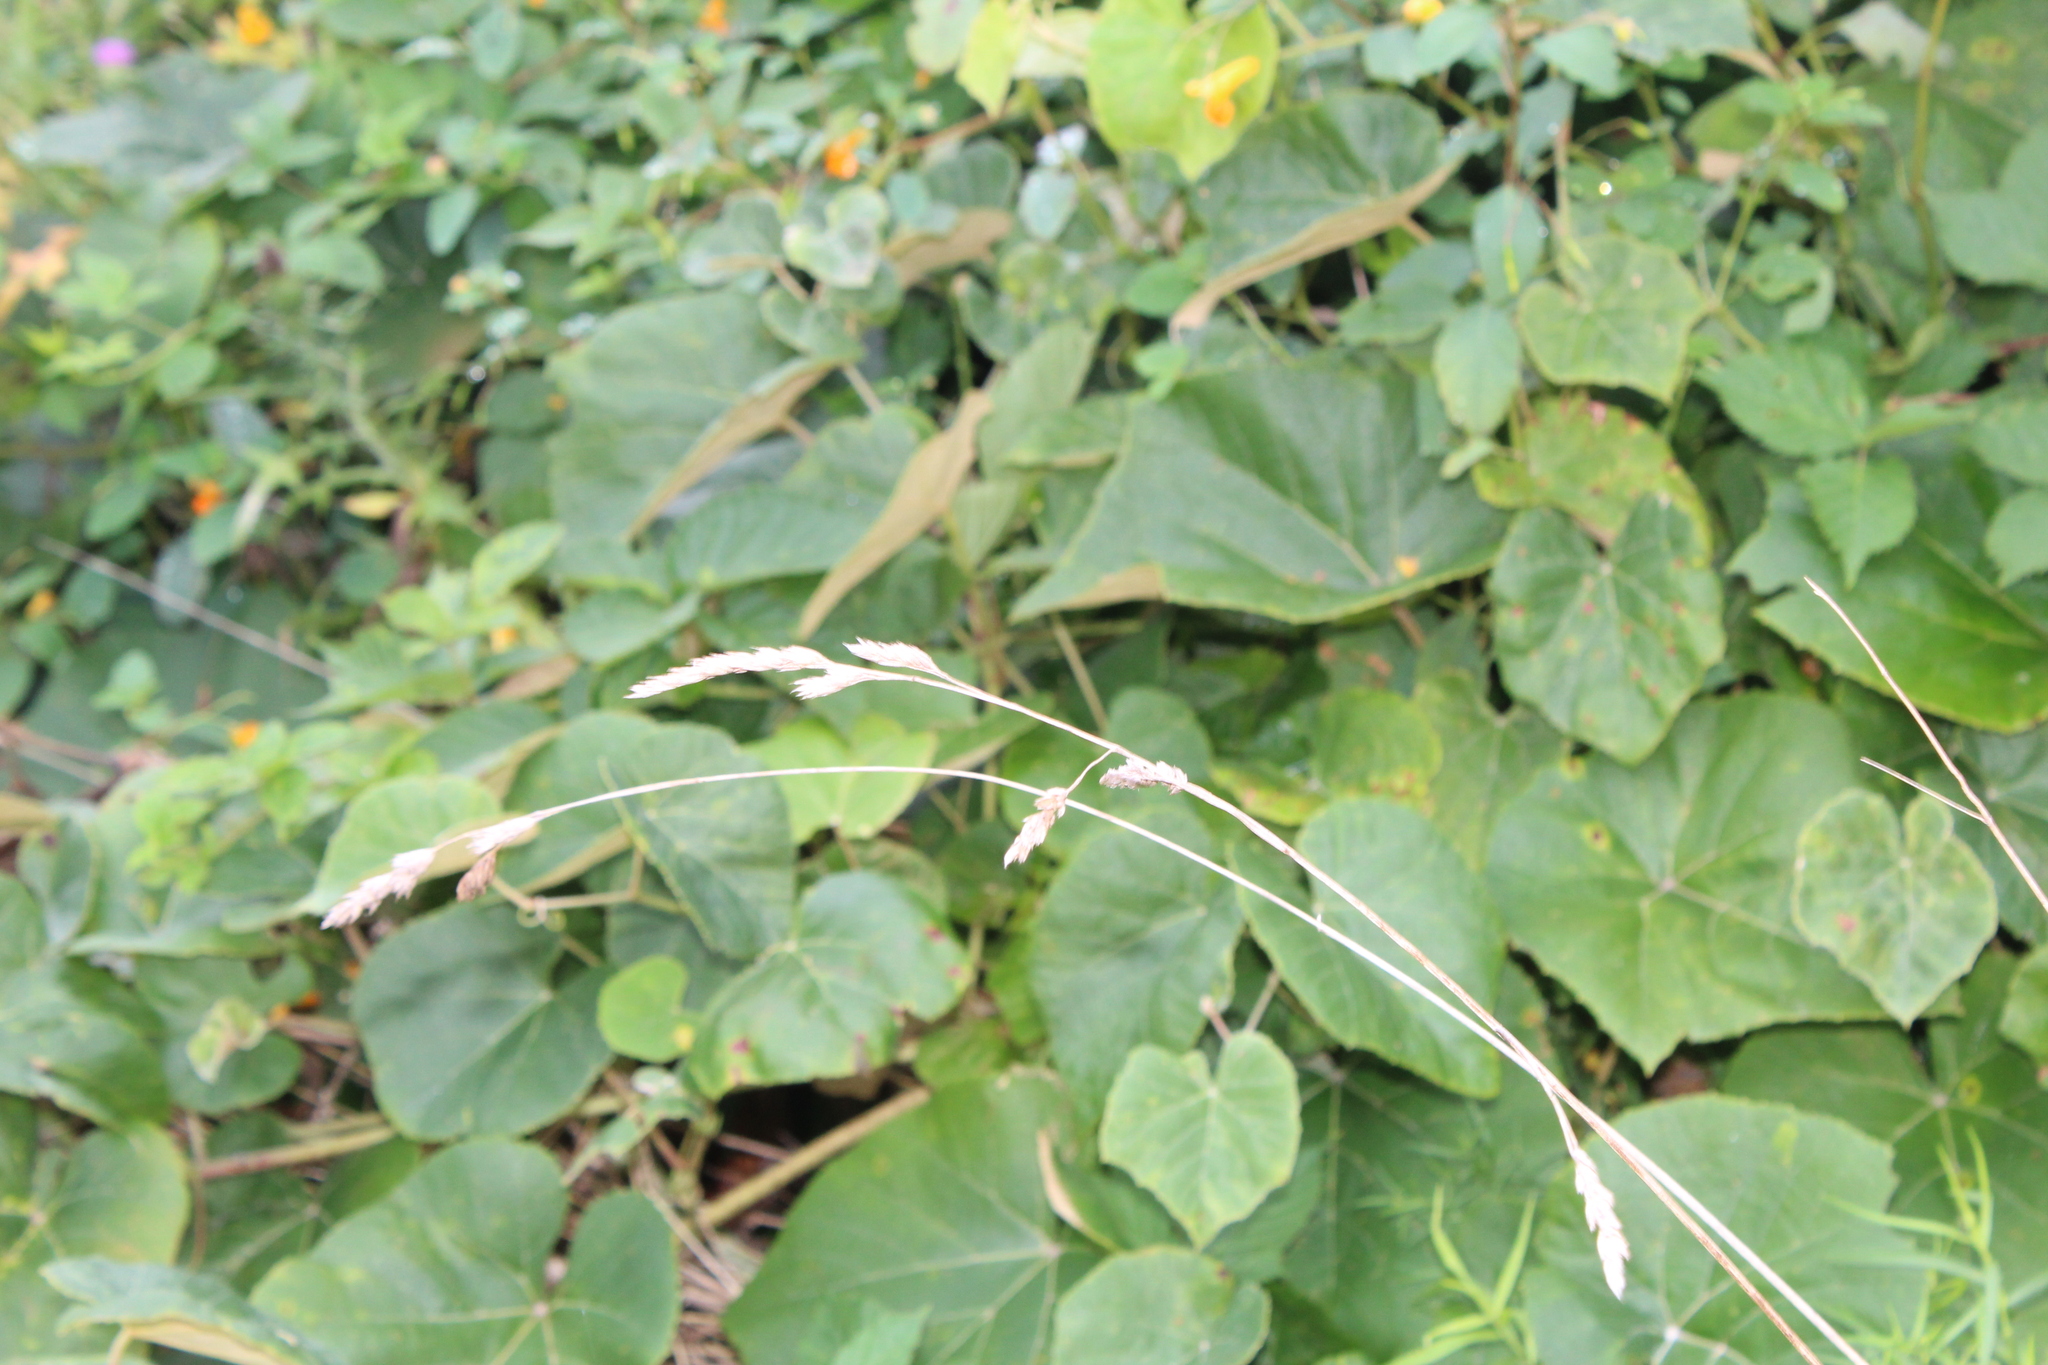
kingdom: Plantae
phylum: Tracheophyta
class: Liliopsida
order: Poales
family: Poaceae
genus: Dactylis
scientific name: Dactylis glomerata
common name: Orchardgrass
